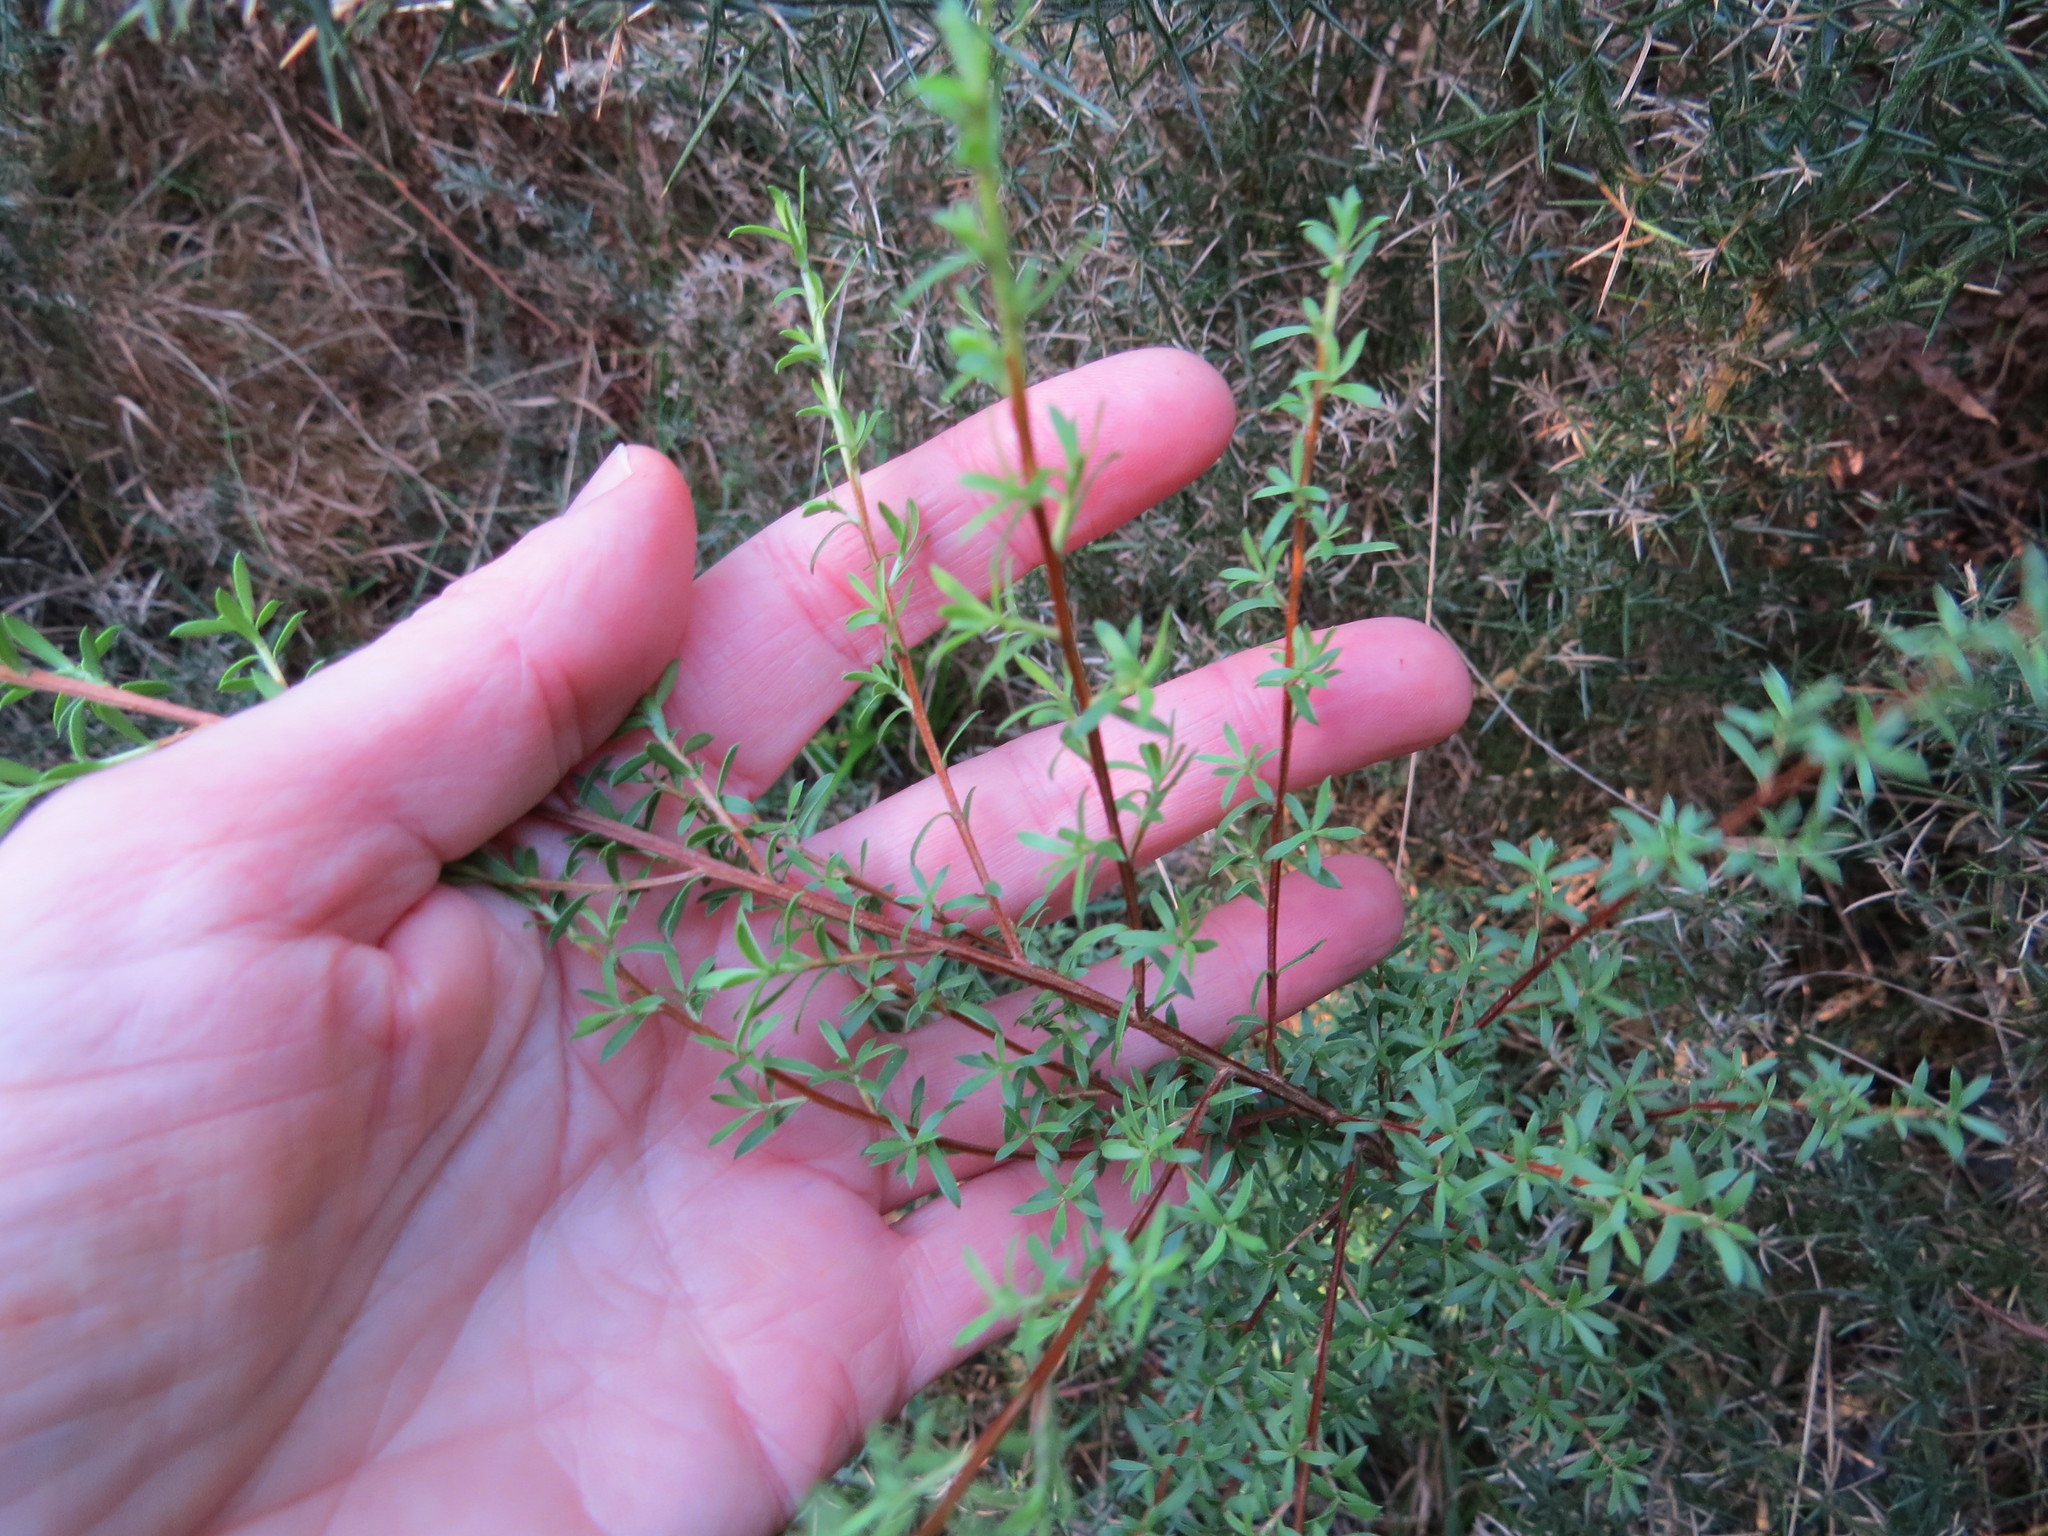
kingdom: Plantae
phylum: Tracheophyta
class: Magnoliopsida
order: Myrtales
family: Myrtaceae
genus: Kunzea
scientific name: Kunzea robusta
